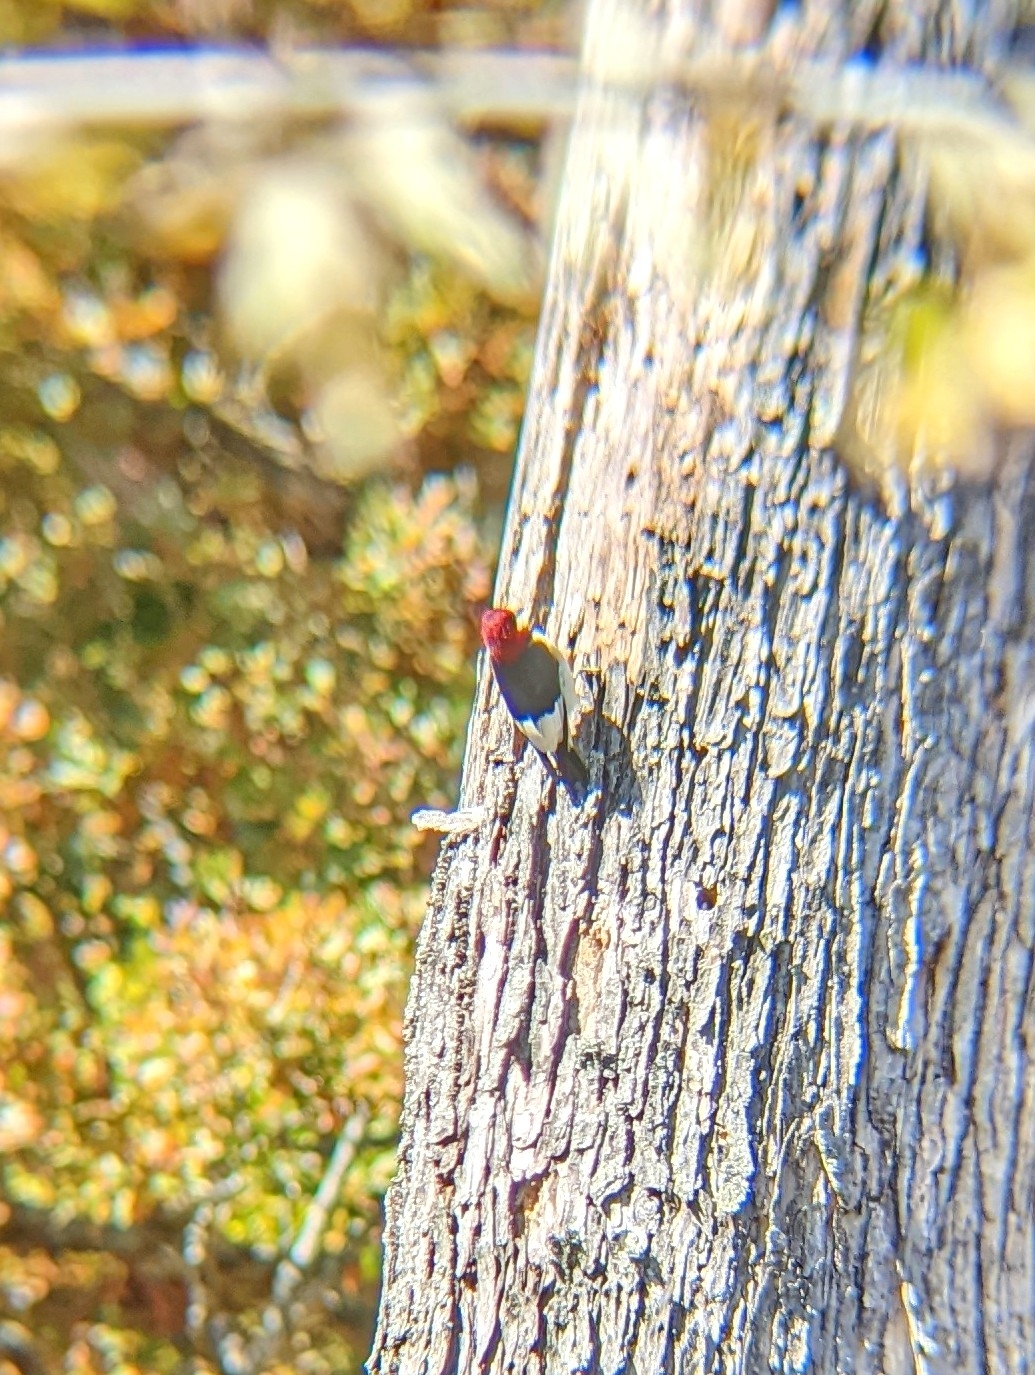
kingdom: Animalia
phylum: Chordata
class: Aves
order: Piciformes
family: Picidae
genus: Melanerpes
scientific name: Melanerpes erythrocephalus
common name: Red-headed woodpecker
